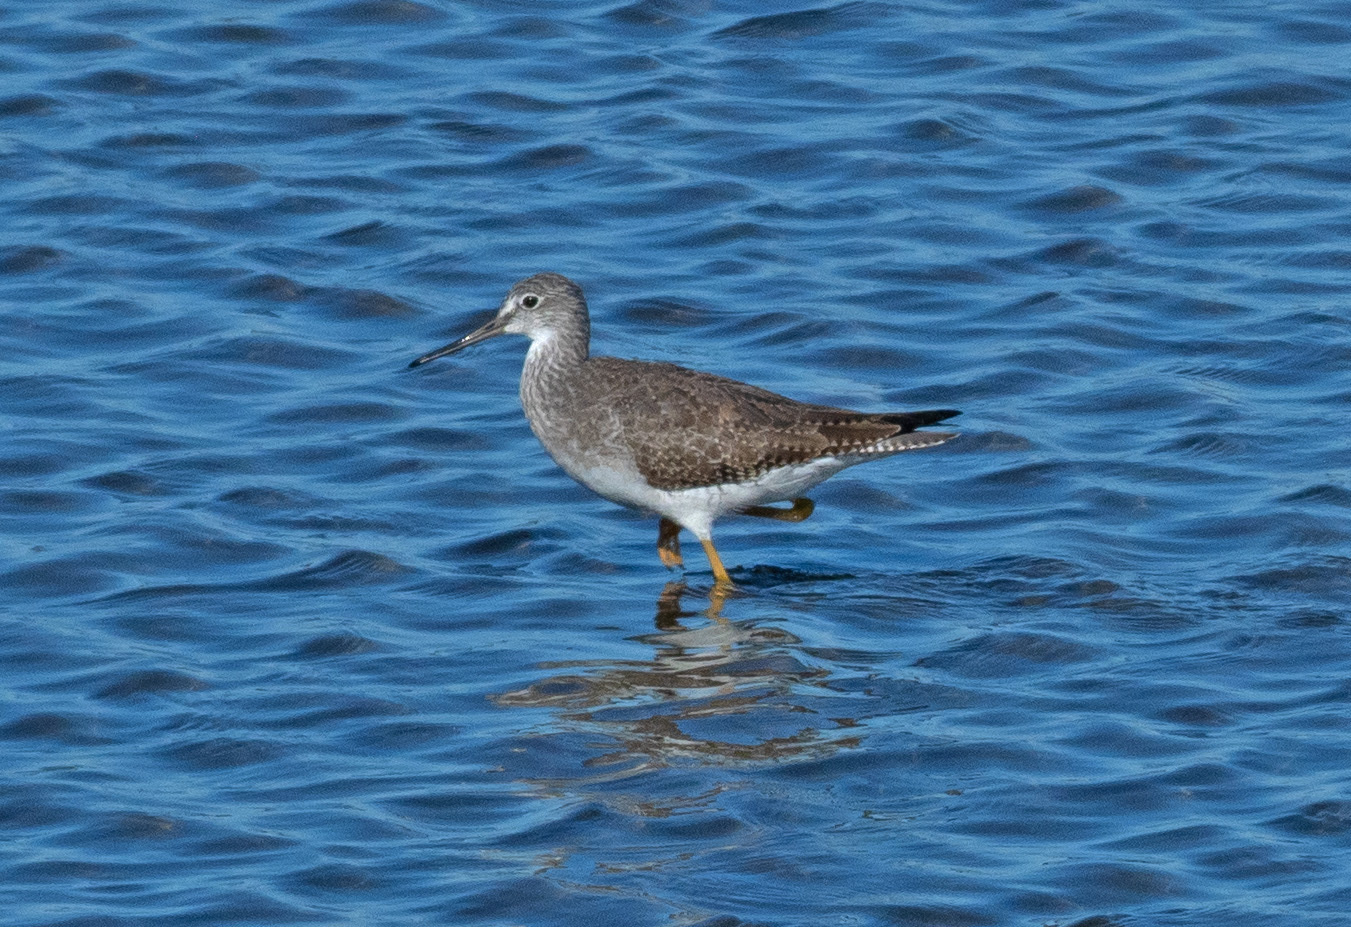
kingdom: Animalia
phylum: Chordata
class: Aves
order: Charadriiformes
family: Scolopacidae
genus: Tringa
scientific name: Tringa melanoleuca
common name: Greater yellowlegs
